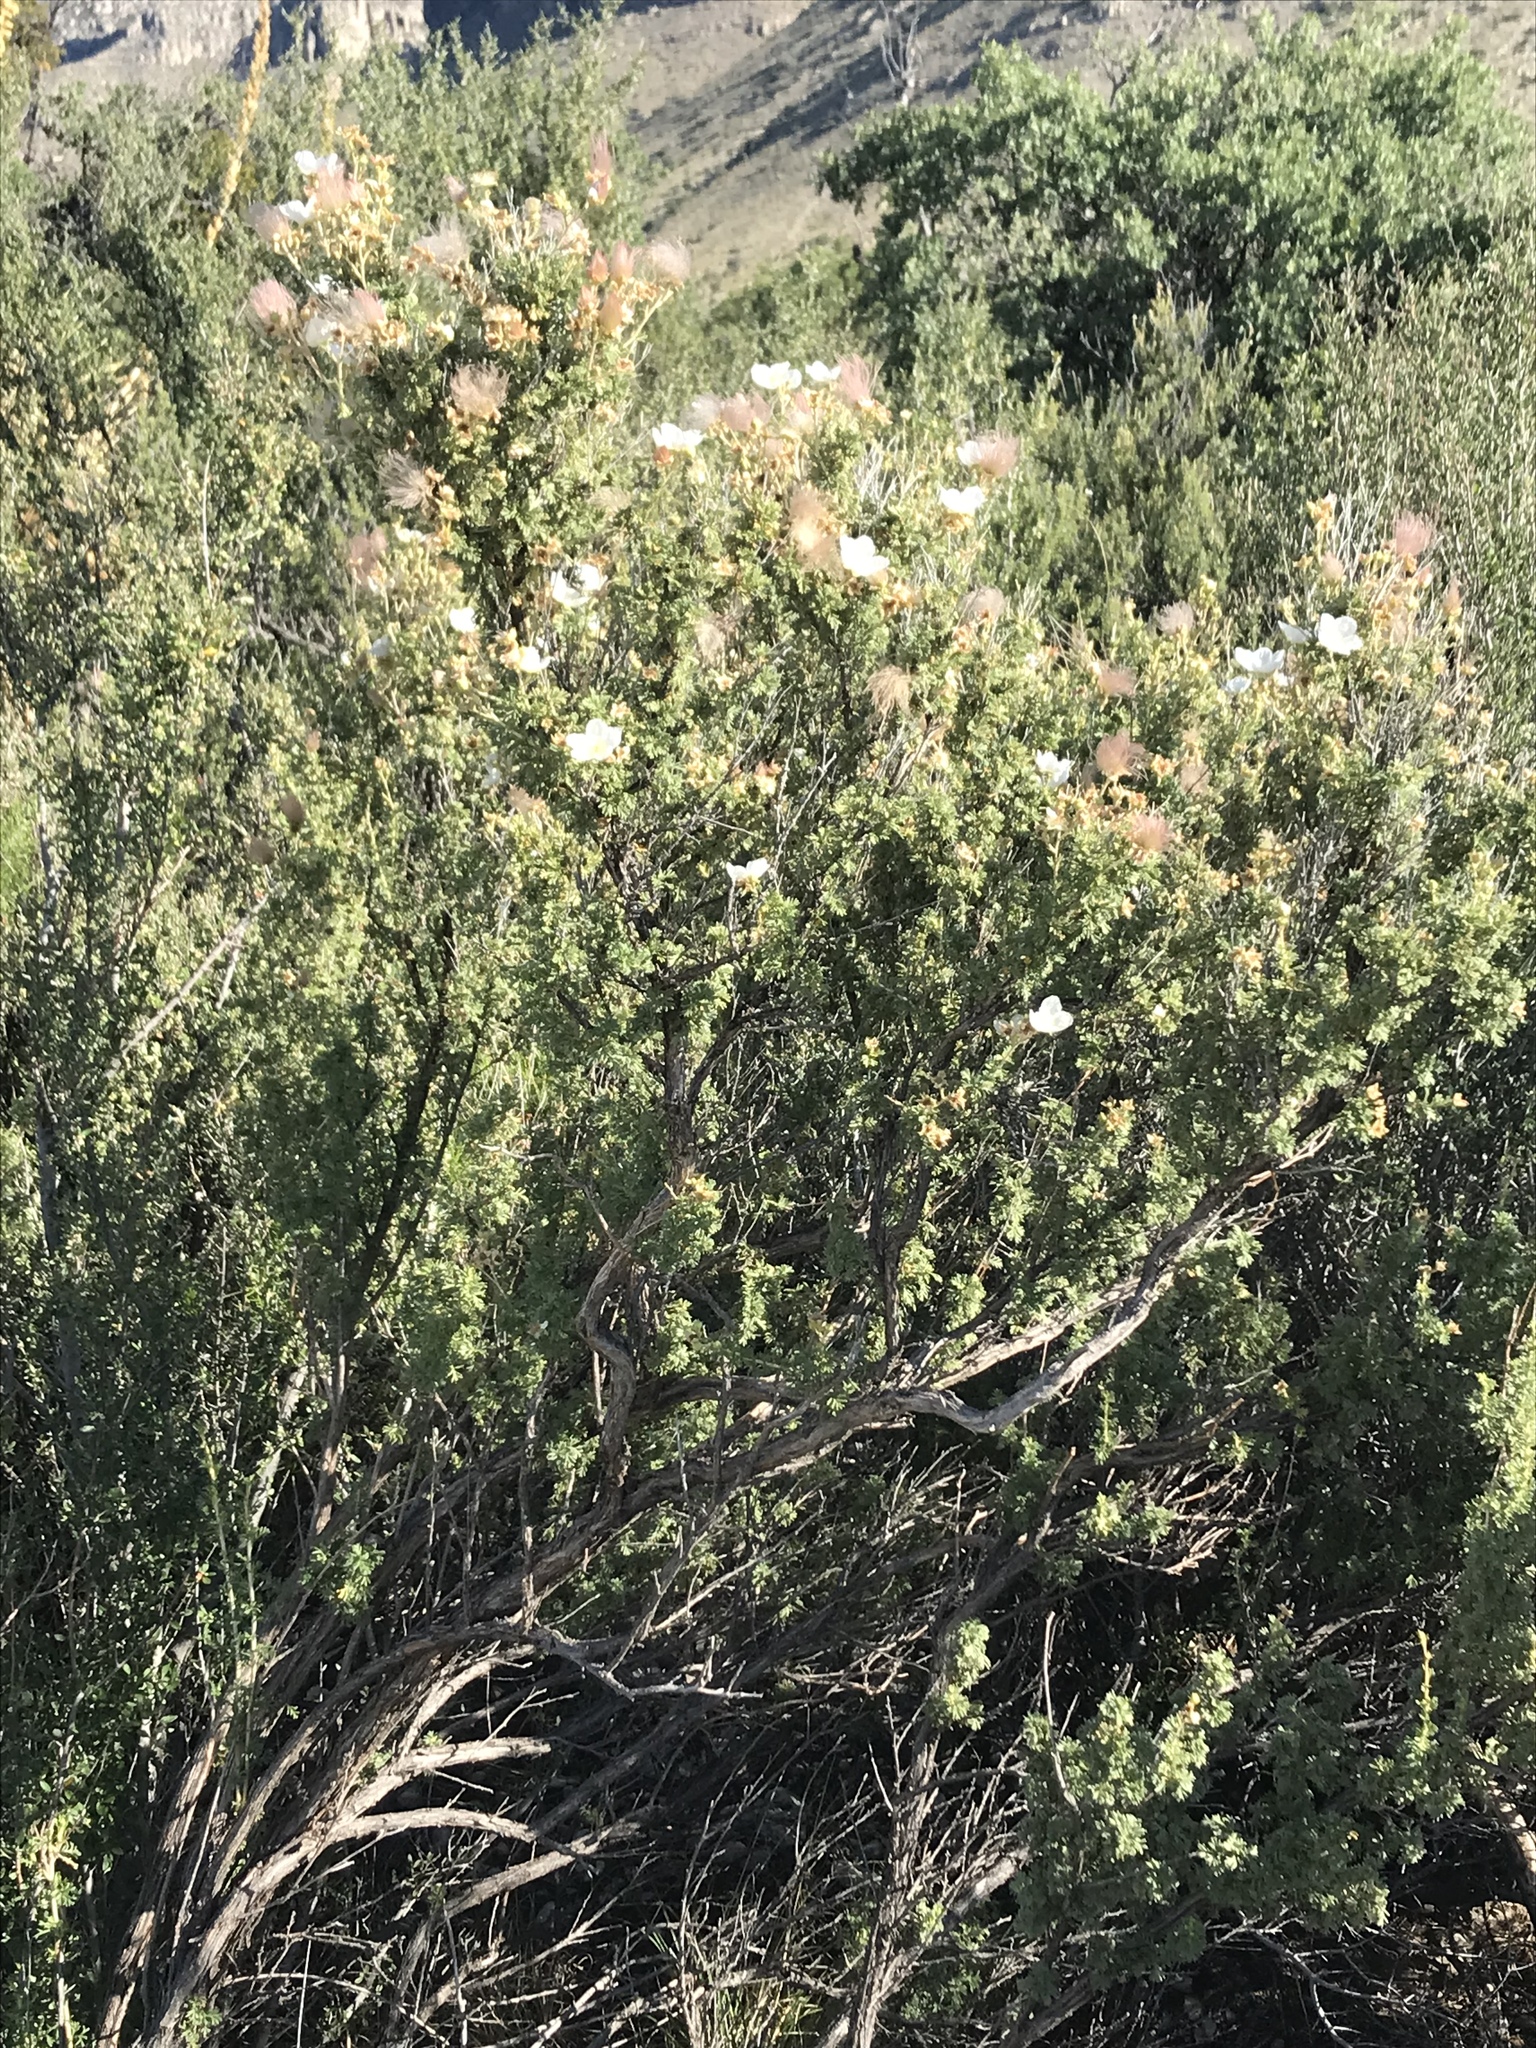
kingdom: Plantae
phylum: Tracheophyta
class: Magnoliopsida
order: Rosales
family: Rosaceae
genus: Fallugia
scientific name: Fallugia paradoxa
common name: Apache-plume
